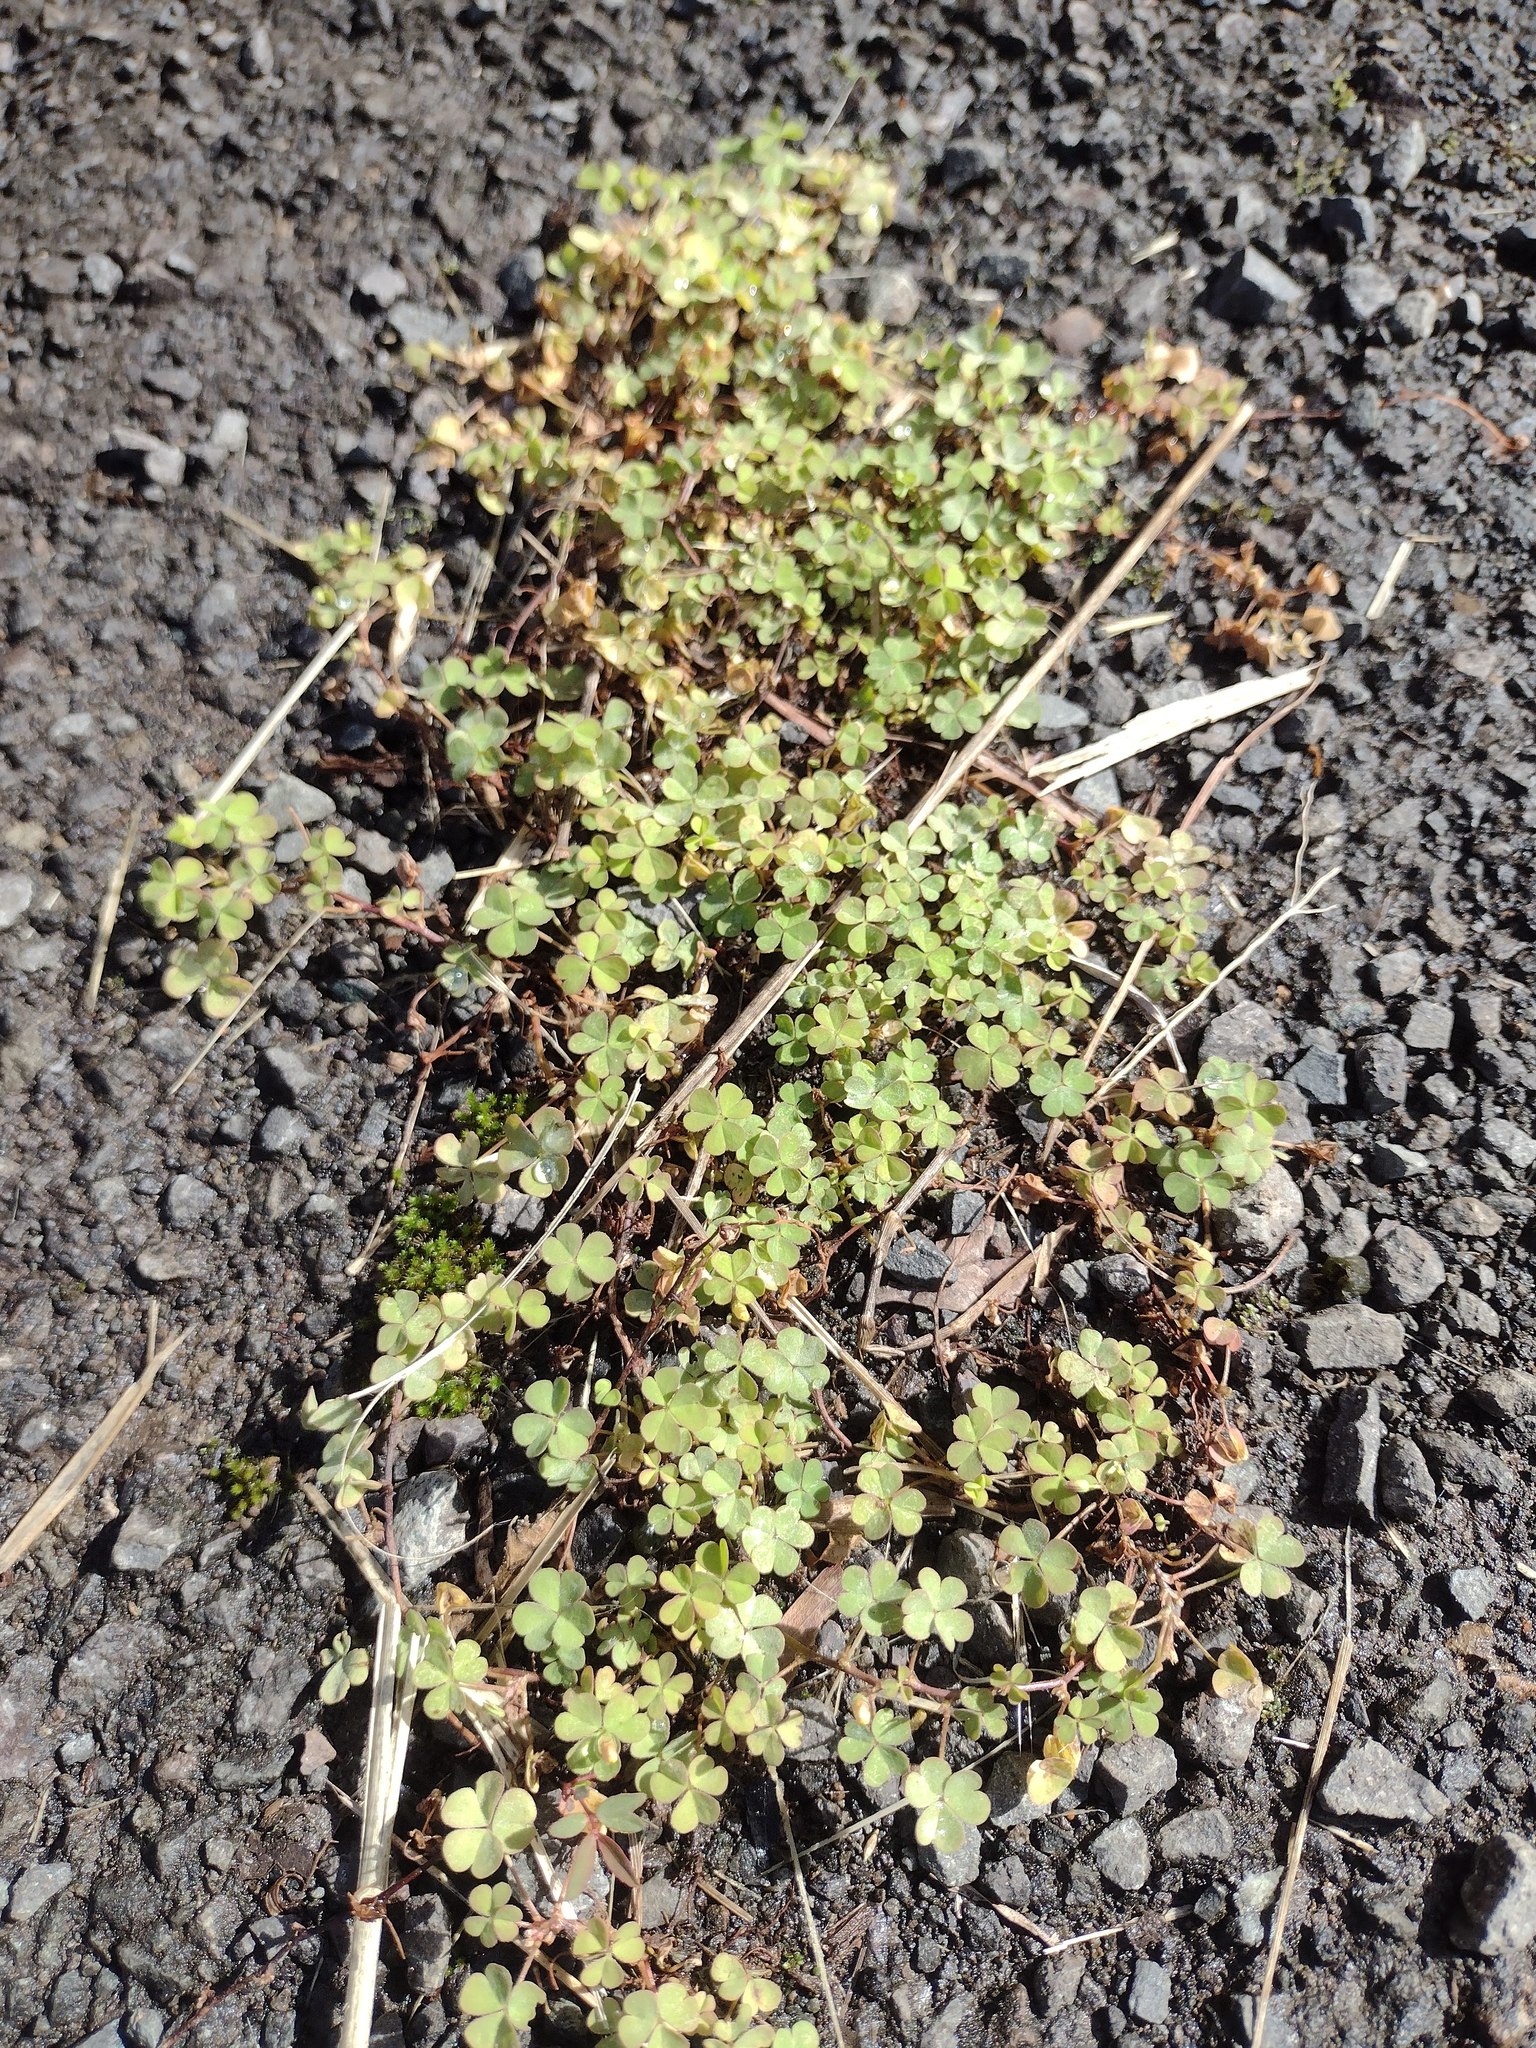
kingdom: Plantae
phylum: Tracheophyta
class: Magnoliopsida
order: Oxalidales
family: Oxalidaceae
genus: Oxalis
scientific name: Oxalis corniculata
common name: Procumbent yellow-sorrel
